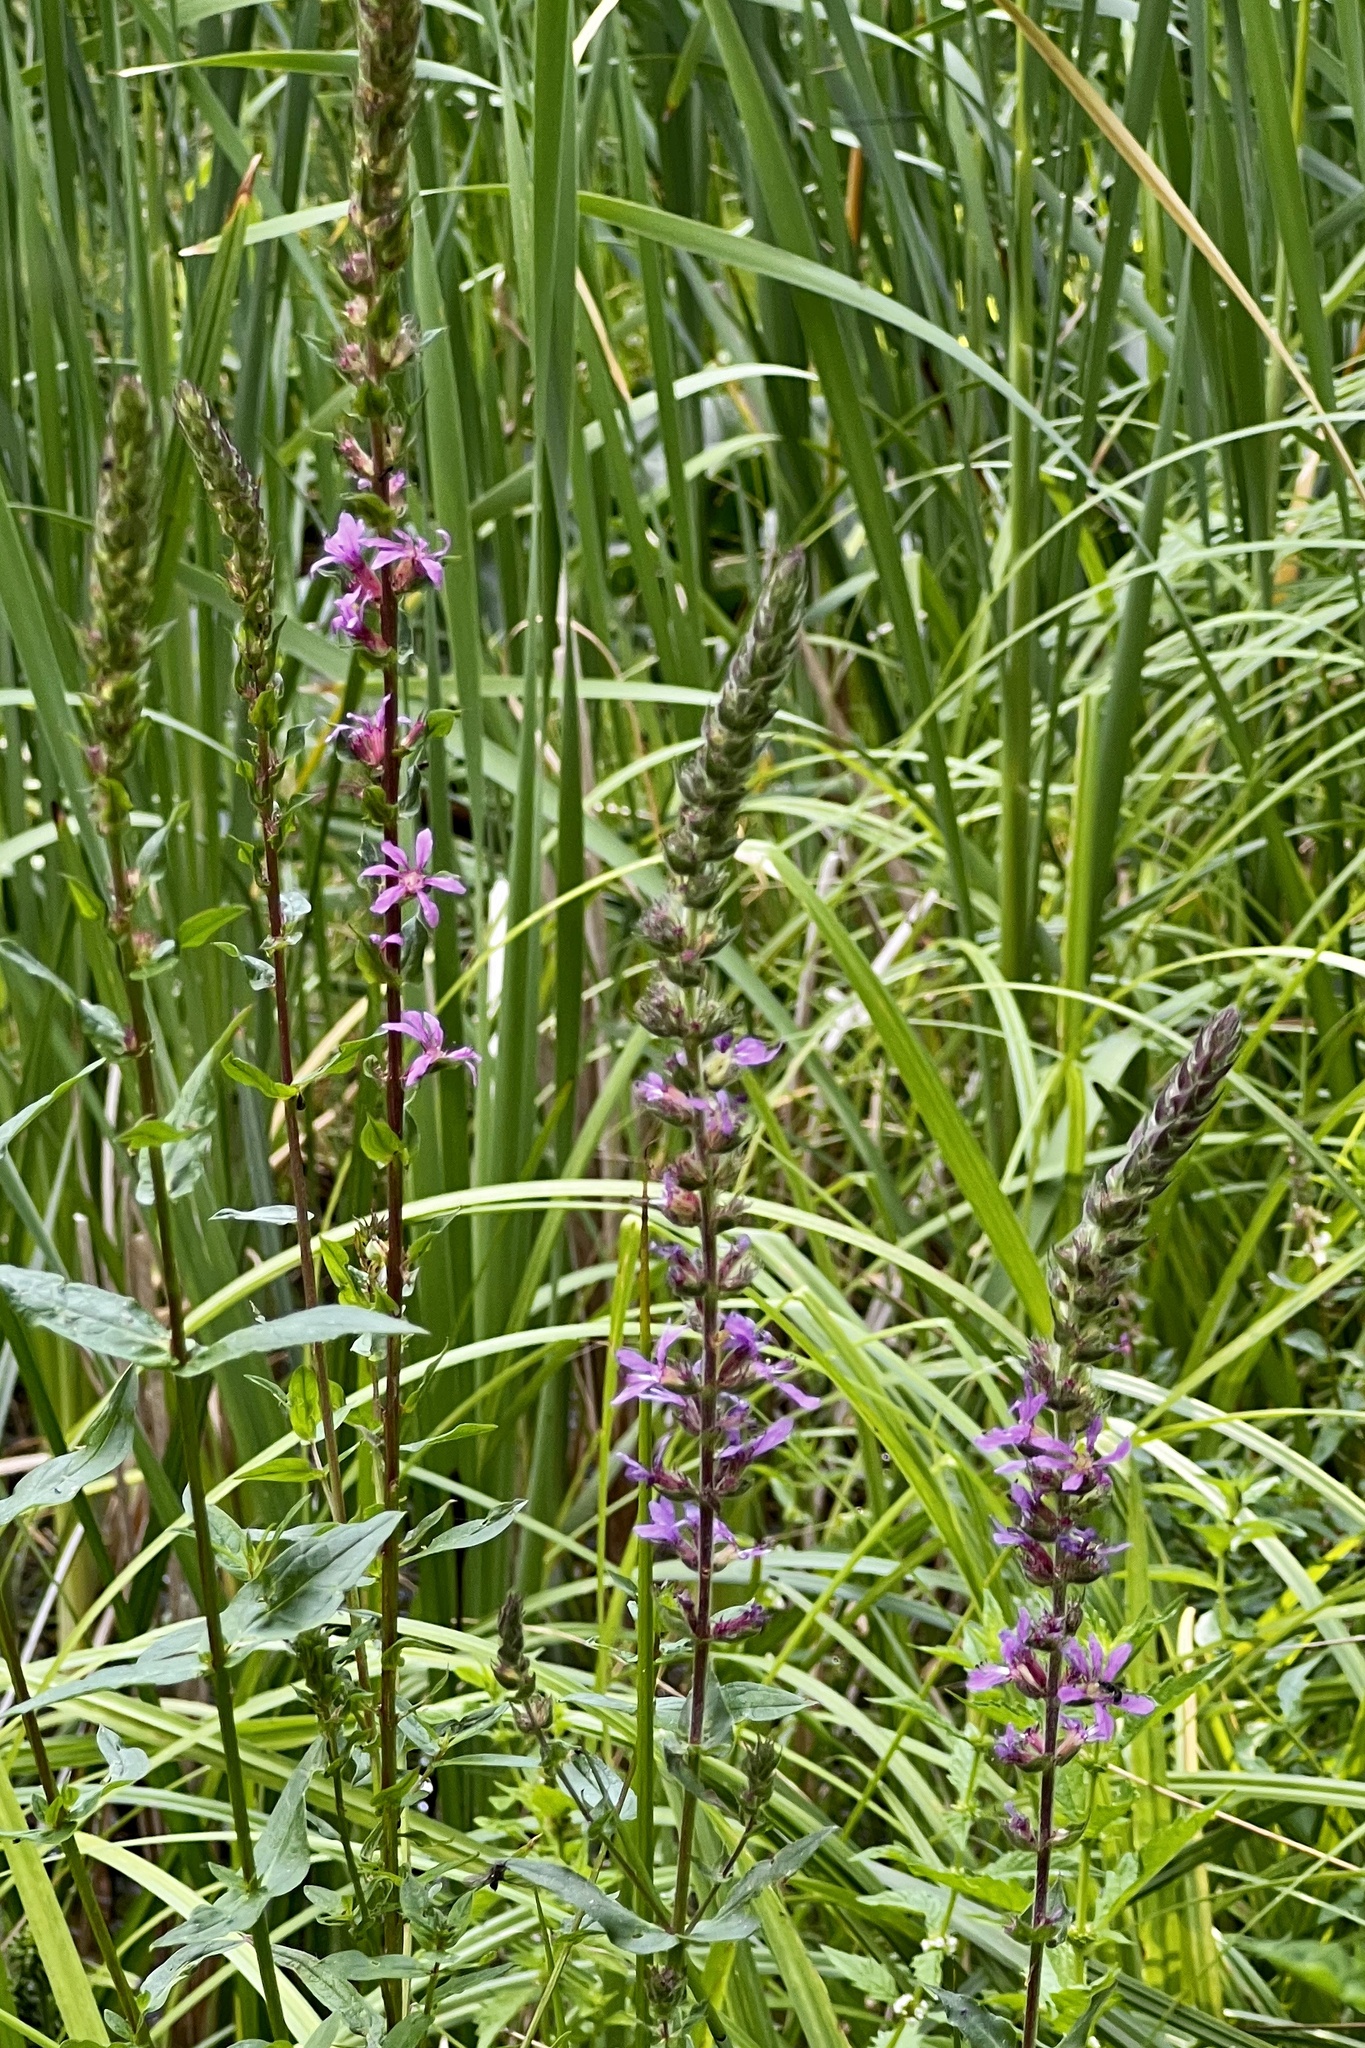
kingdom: Plantae
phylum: Tracheophyta
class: Magnoliopsida
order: Myrtales
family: Lythraceae
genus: Lythrum
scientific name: Lythrum salicaria
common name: Purple loosestrife
